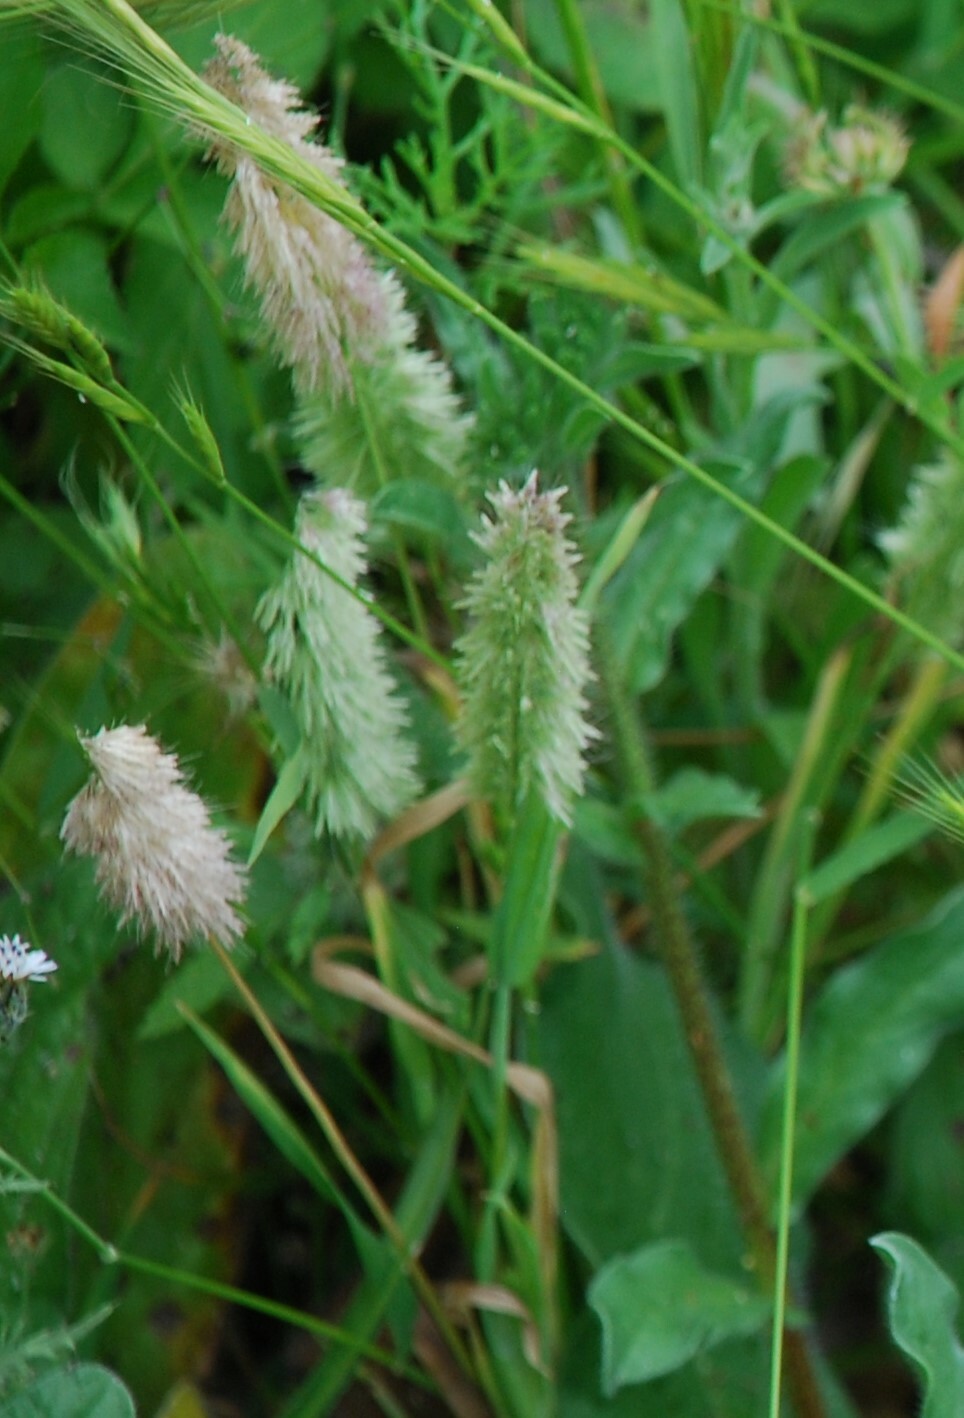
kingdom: Plantae
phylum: Tracheophyta
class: Liliopsida
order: Poales
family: Poaceae
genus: Lamarckia
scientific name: Lamarckia aurea
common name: Golden dog's-tail
